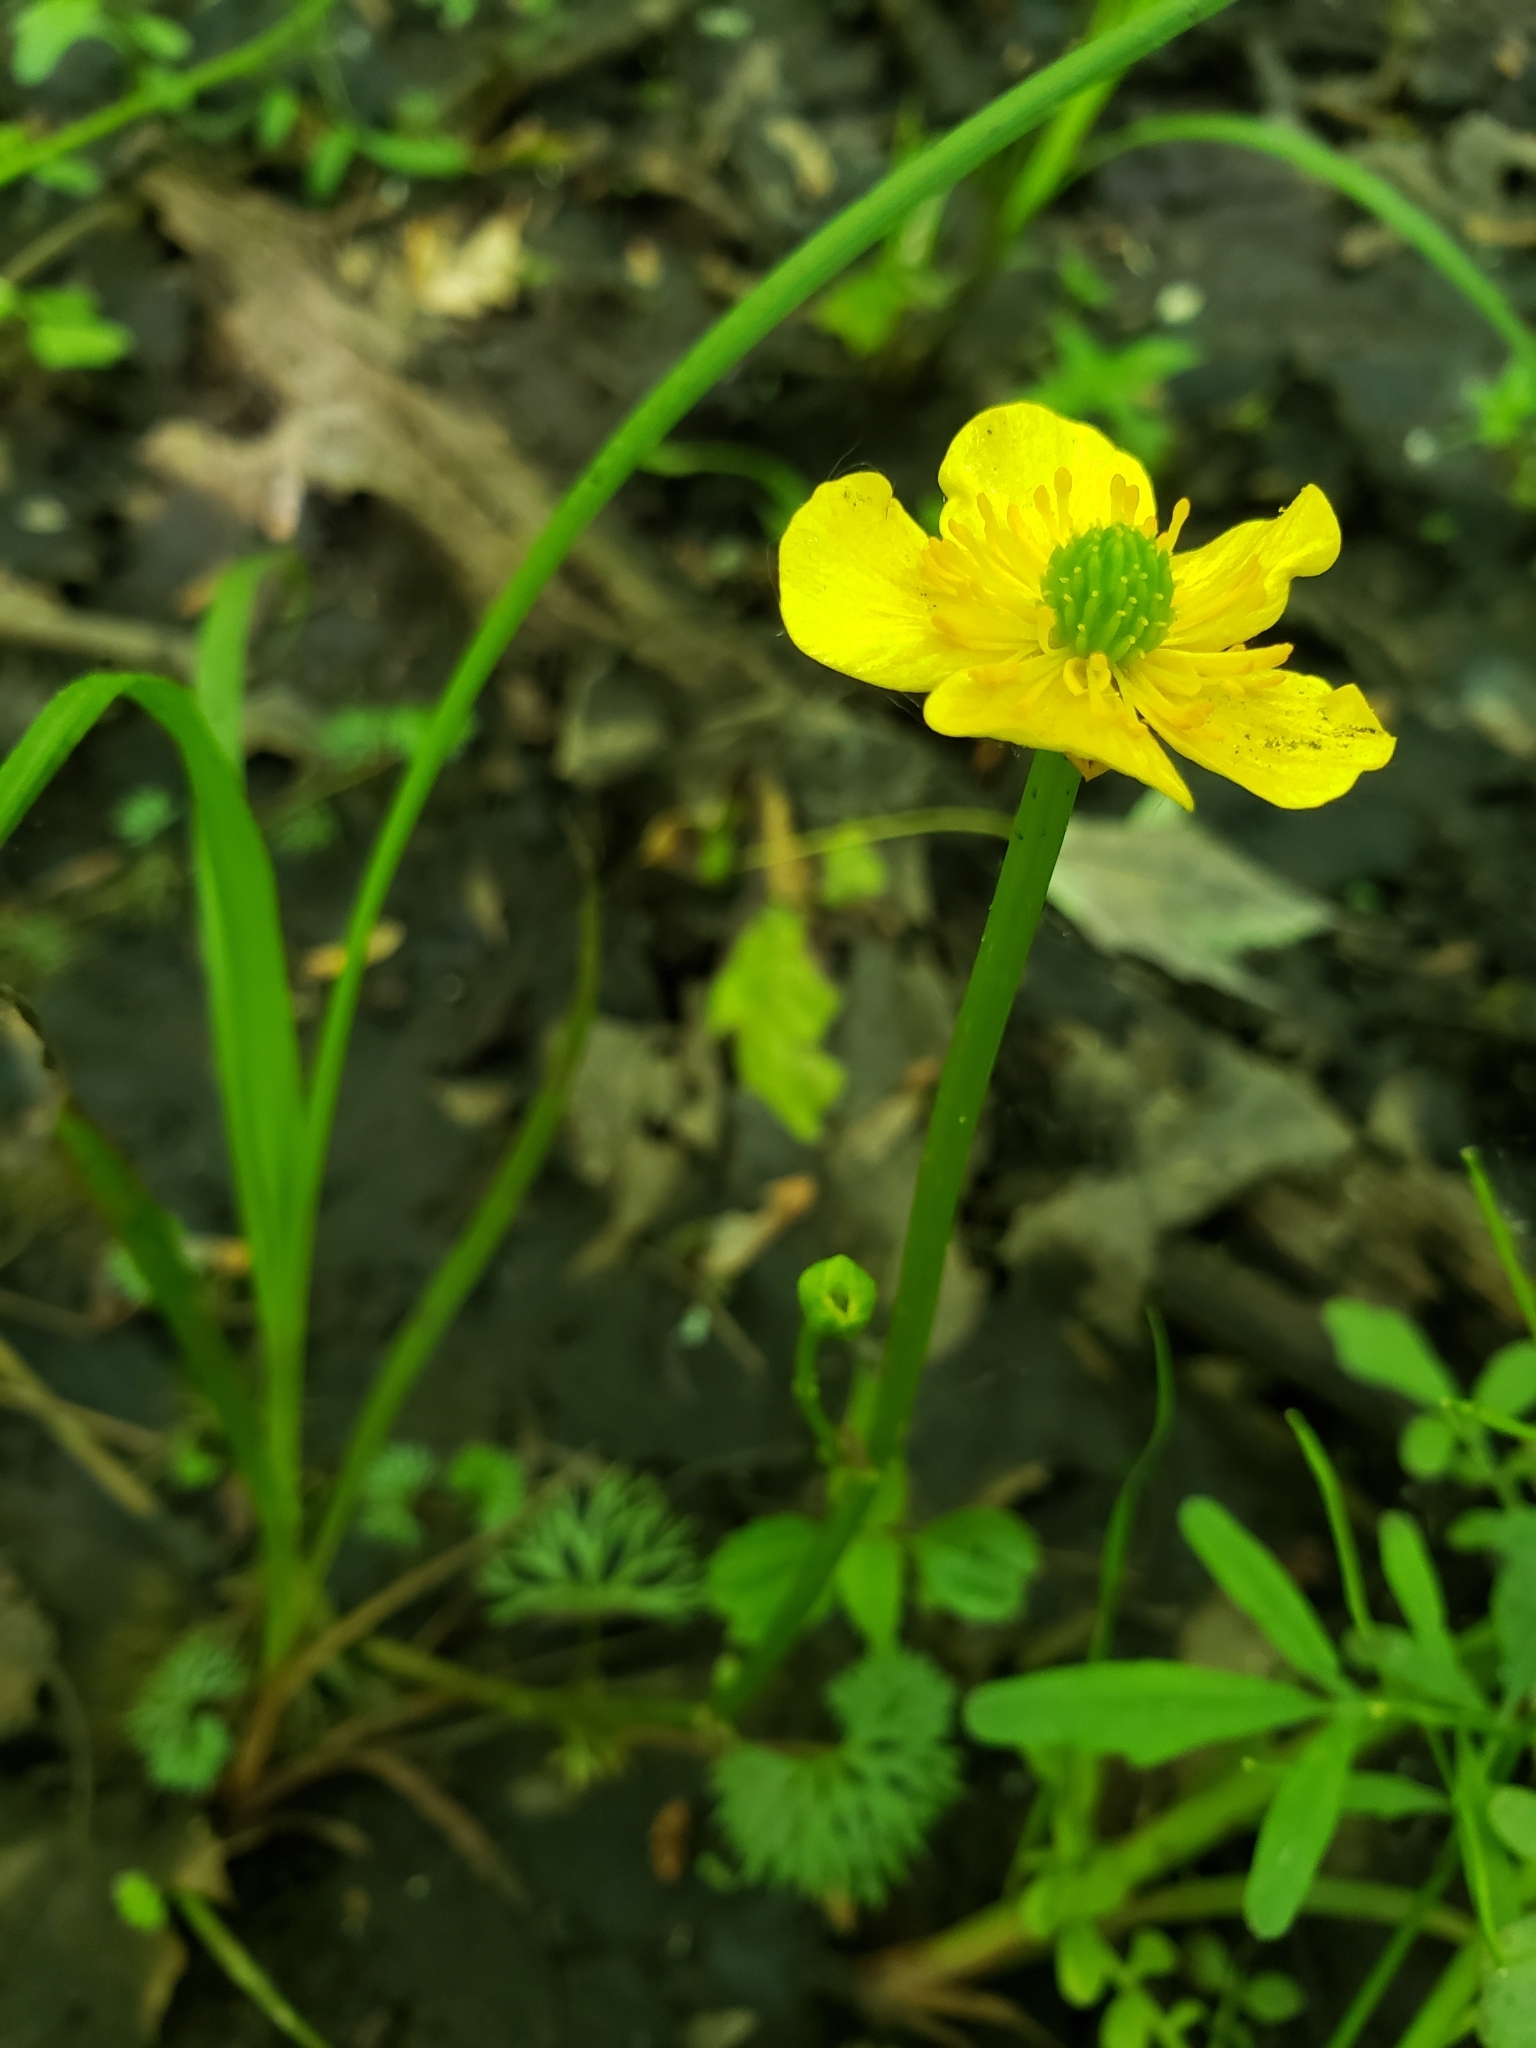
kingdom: Plantae
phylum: Tracheophyta
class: Magnoliopsida
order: Ranunculales
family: Ranunculaceae
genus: Ranunculus
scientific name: Ranunculus flabellaris
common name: Yellow water-crowfoot
